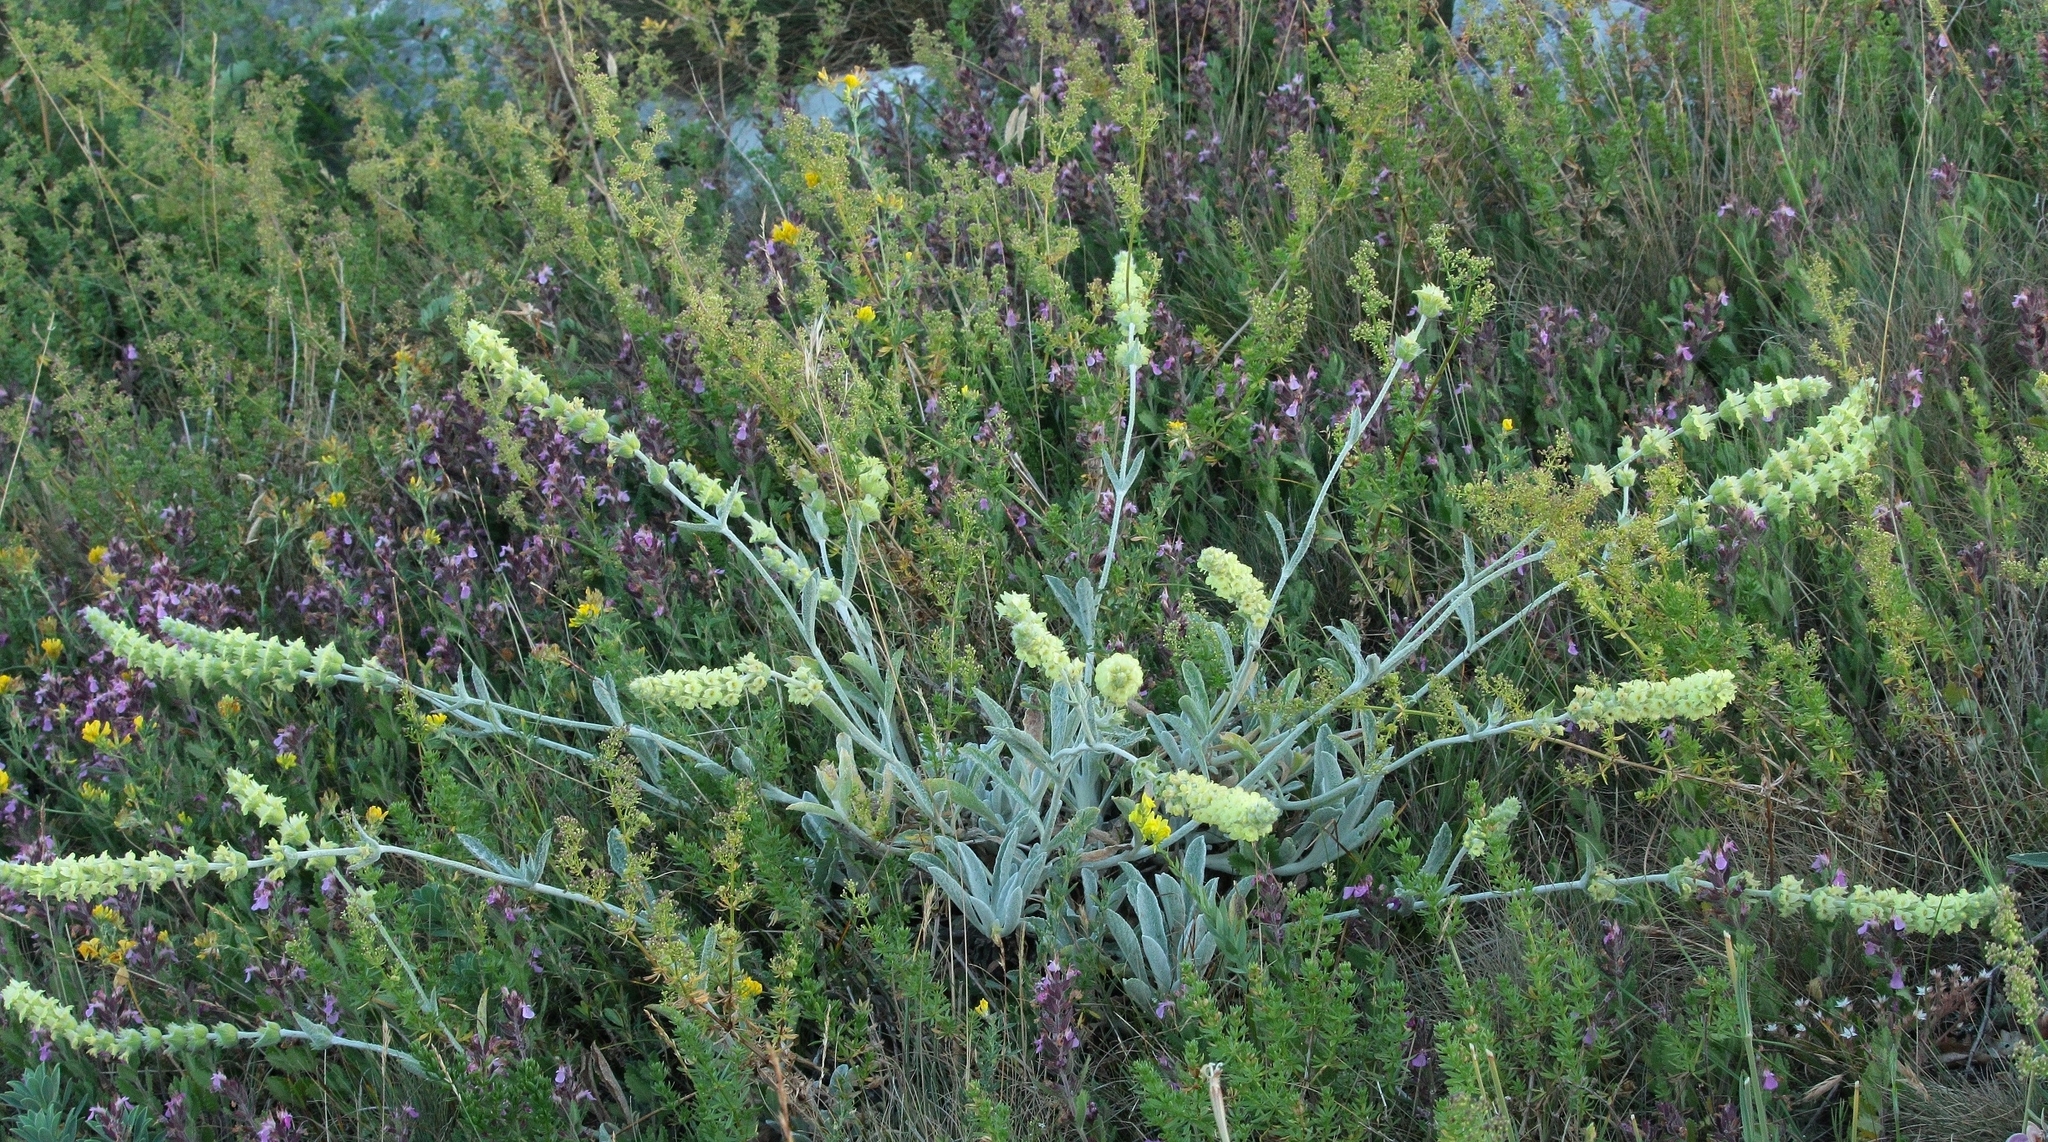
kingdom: Plantae
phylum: Tracheophyta
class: Magnoliopsida
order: Lamiales
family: Lamiaceae
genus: Sideritis
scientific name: Sideritis taurica
